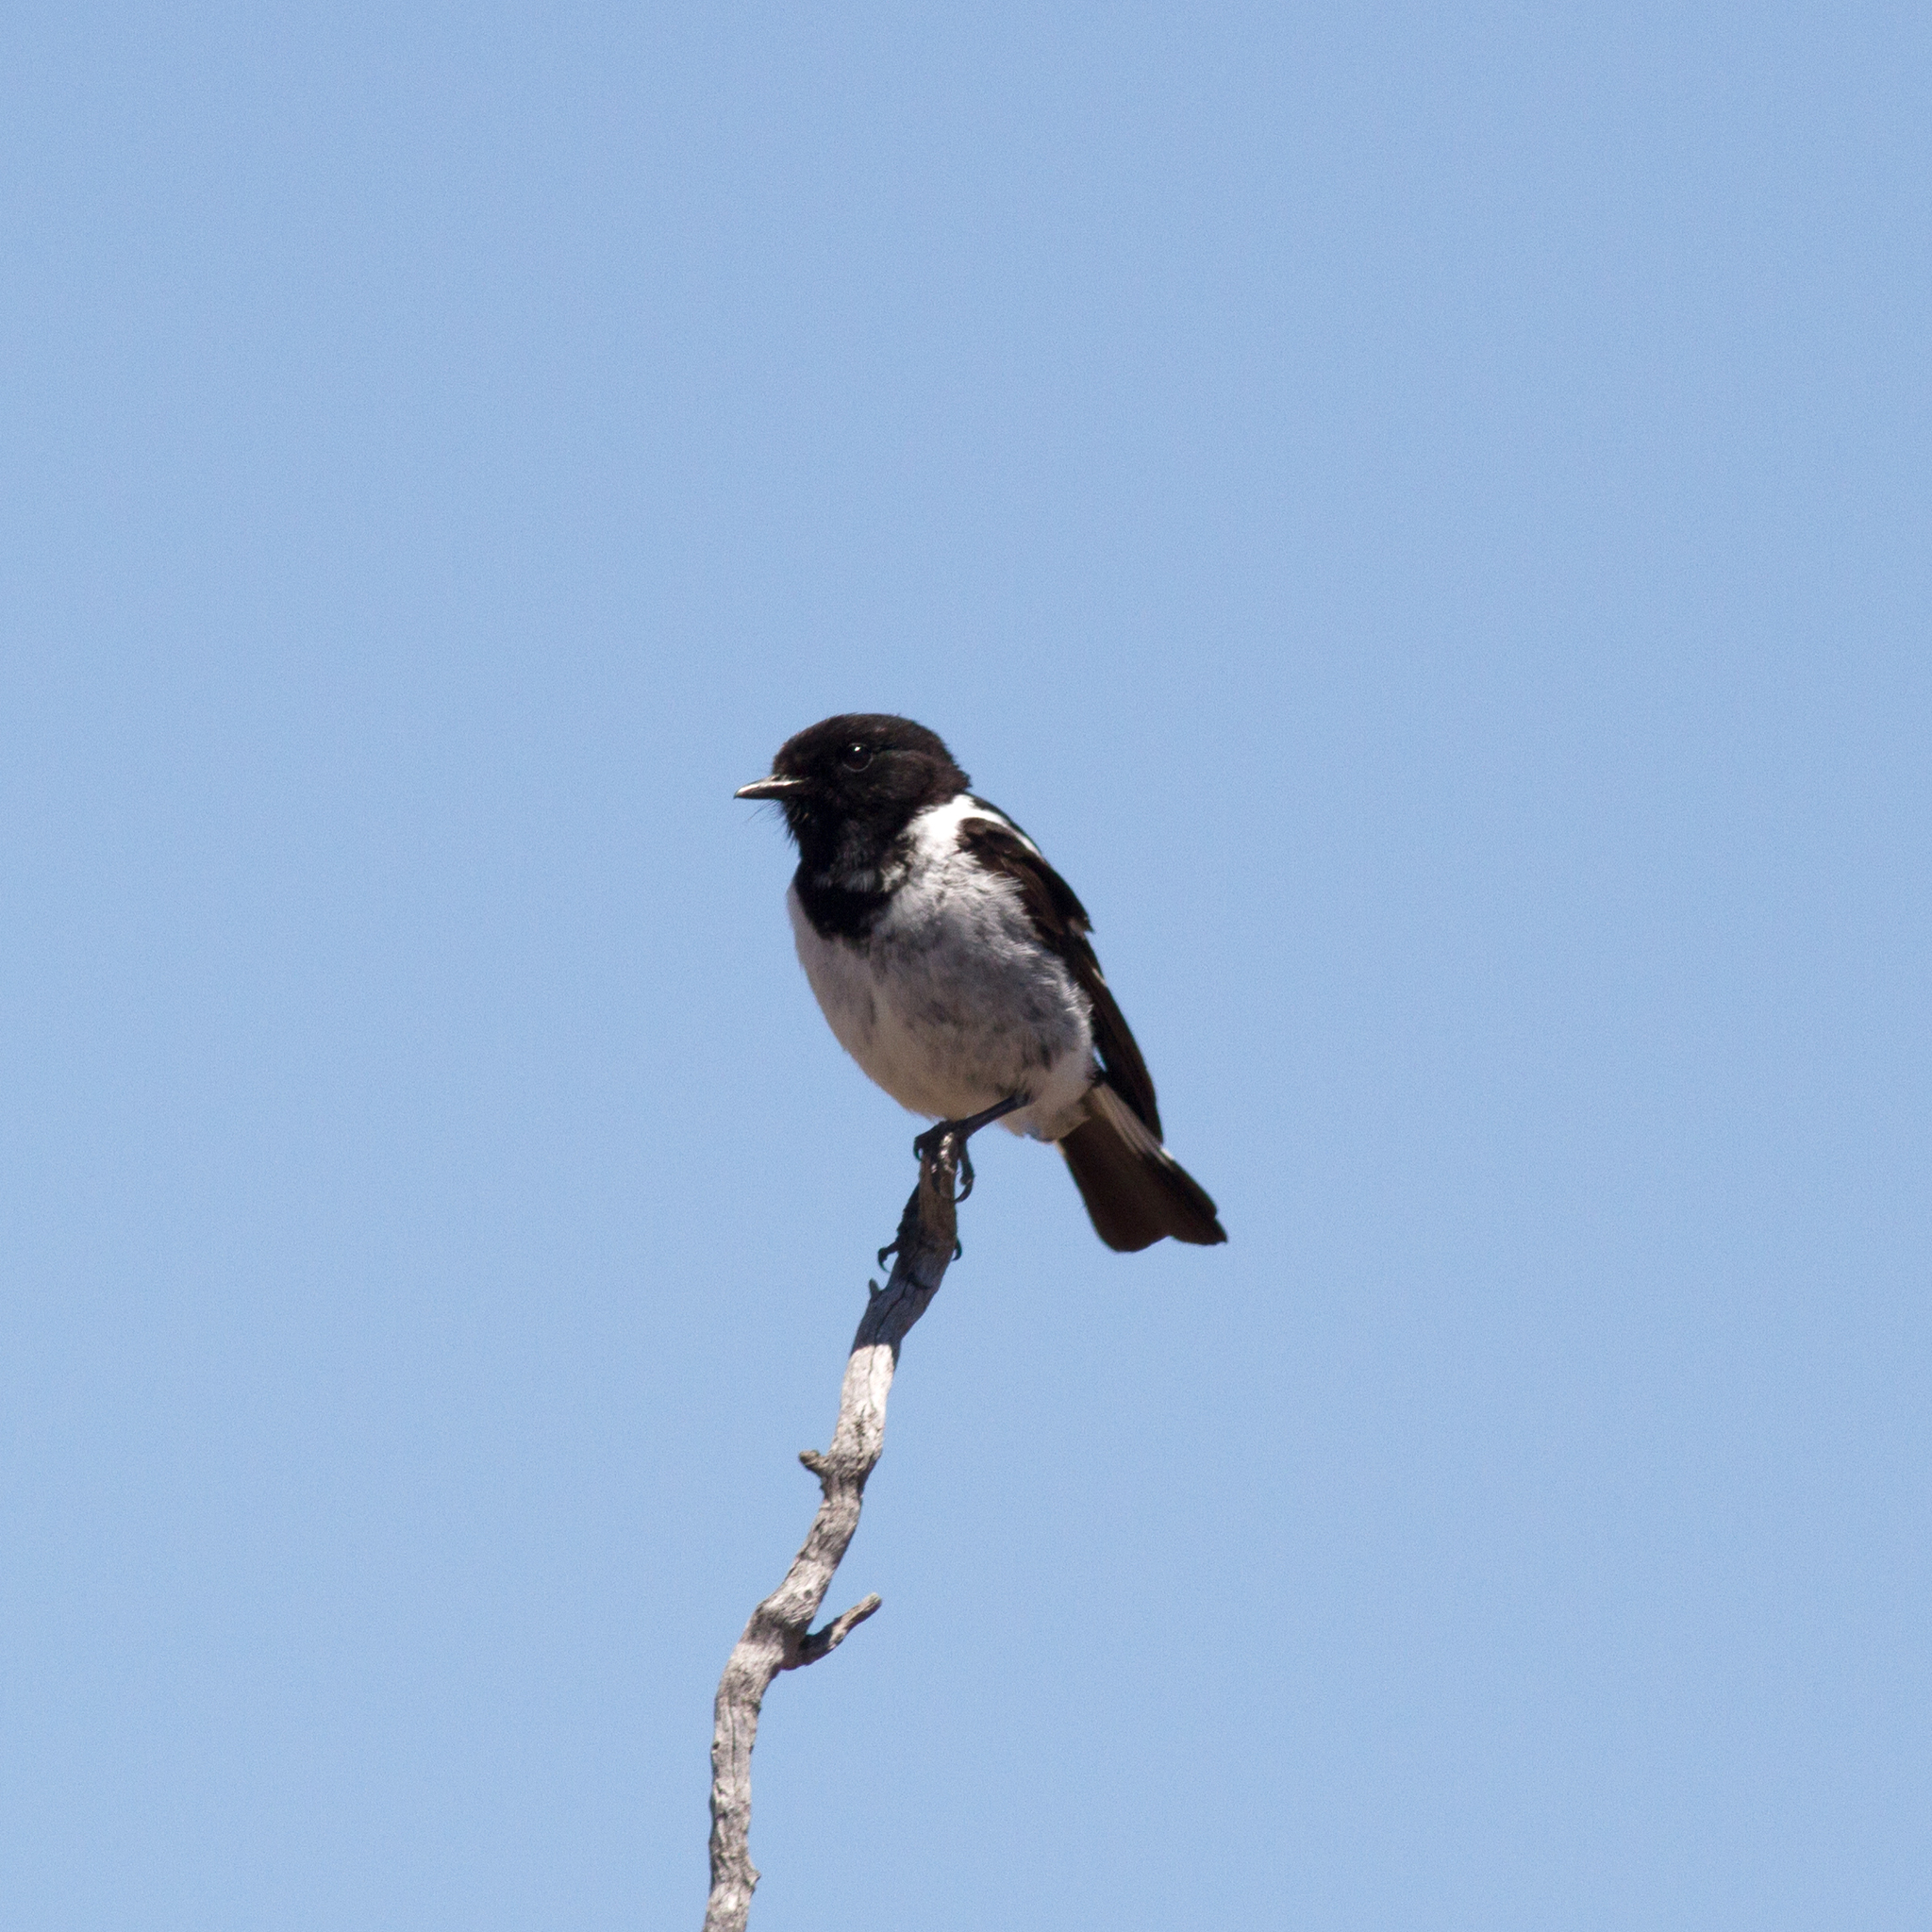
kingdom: Animalia
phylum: Chordata
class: Aves
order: Passeriformes
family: Petroicidae
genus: Melanodryas
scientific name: Melanodryas cucullata
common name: Hooded robin
